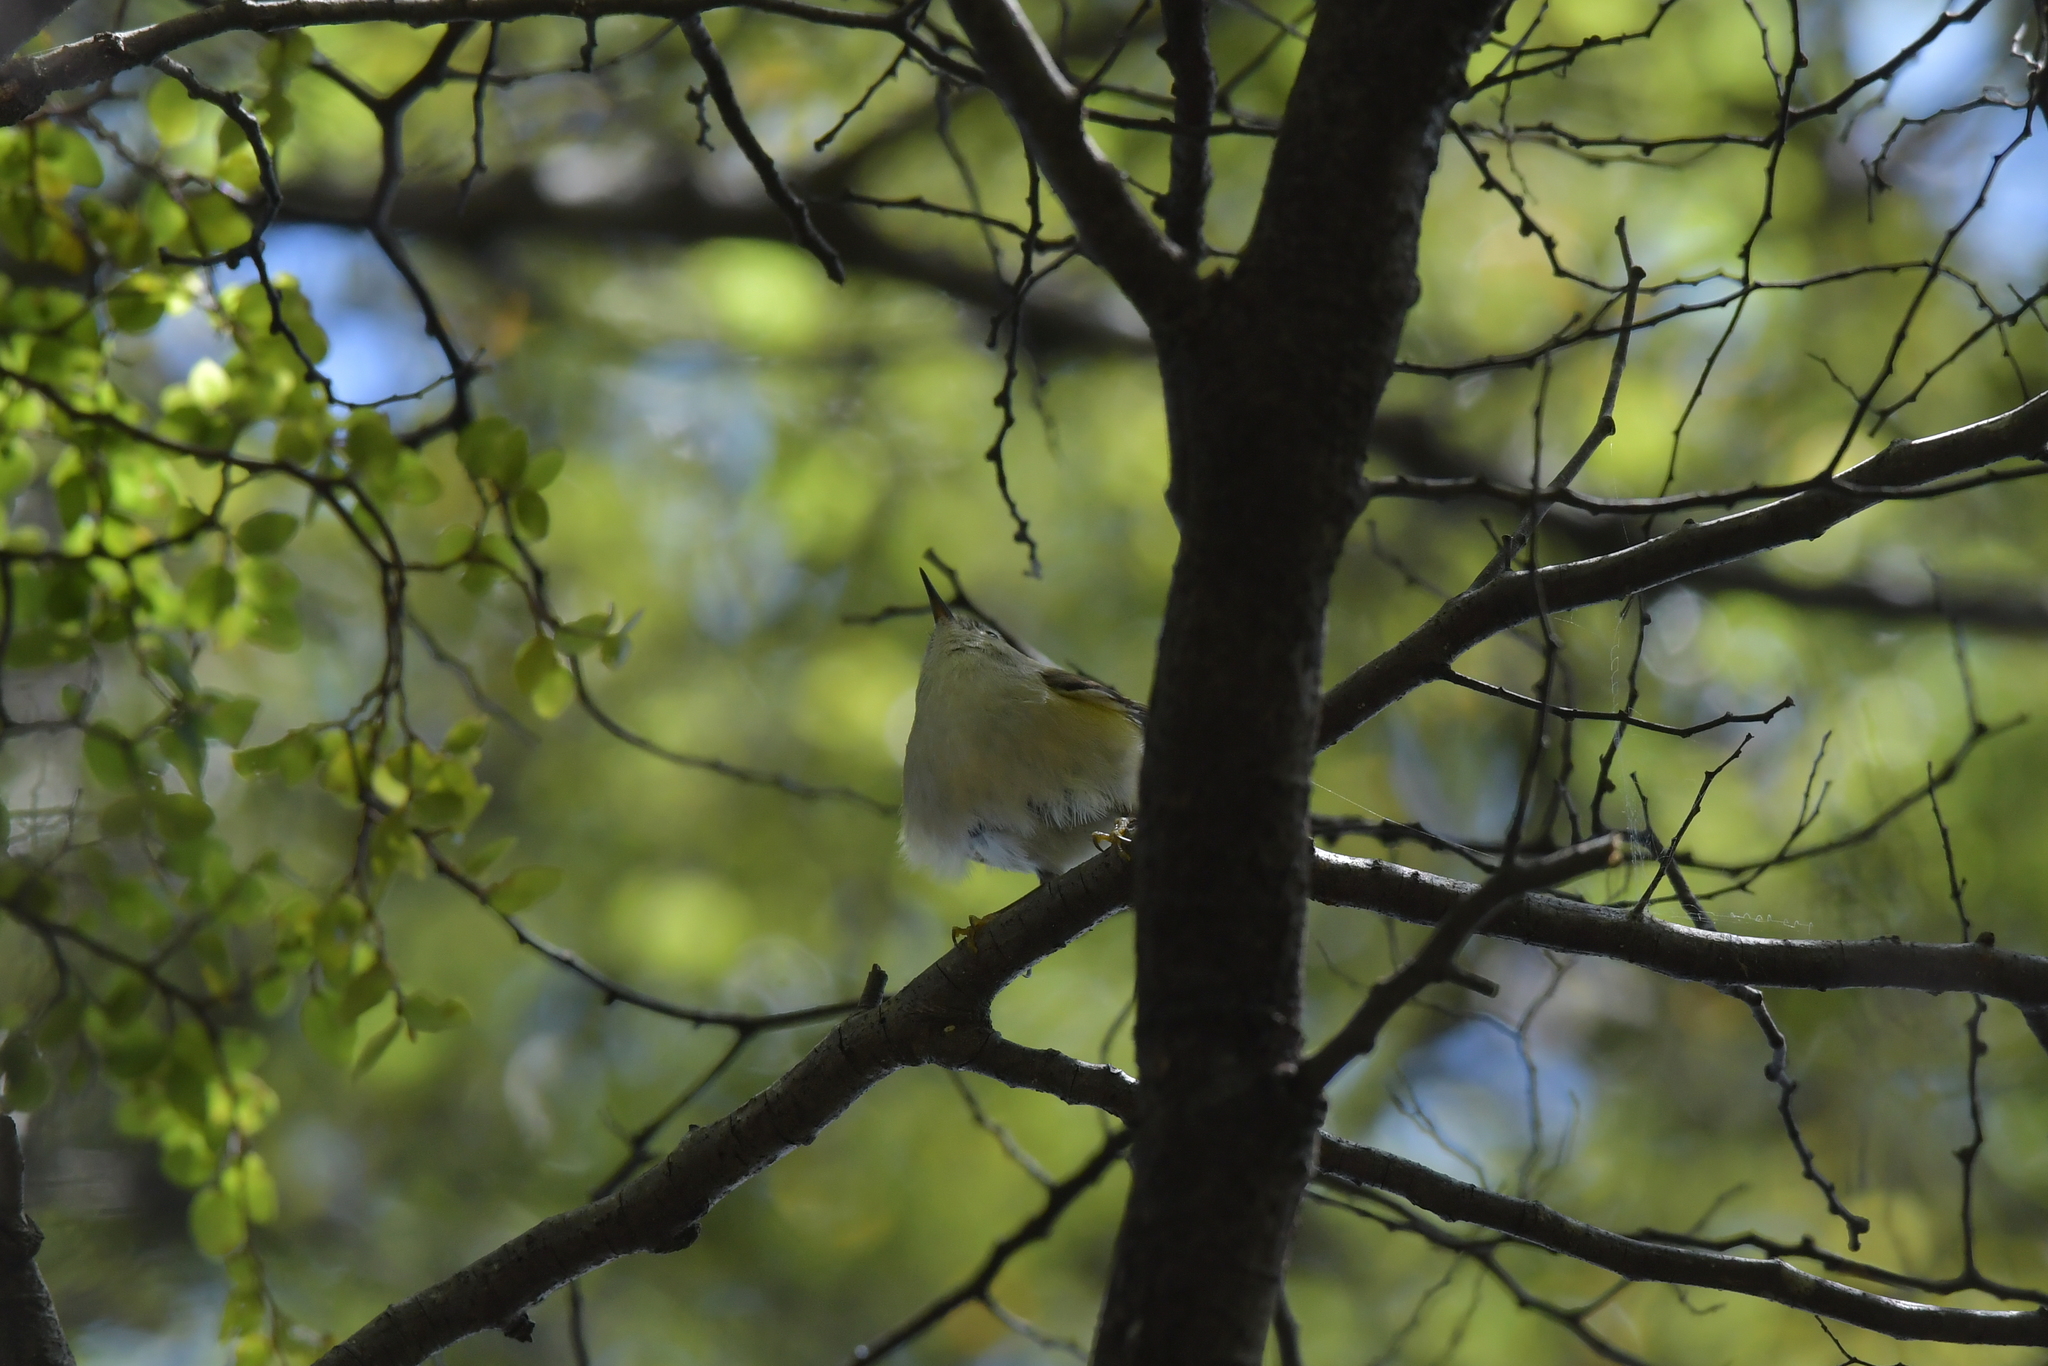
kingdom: Animalia
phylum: Chordata
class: Aves
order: Passeriformes
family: Acanthisittidae
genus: Acanthisitta
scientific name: Acanthisitta chloris
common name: Rifleman
